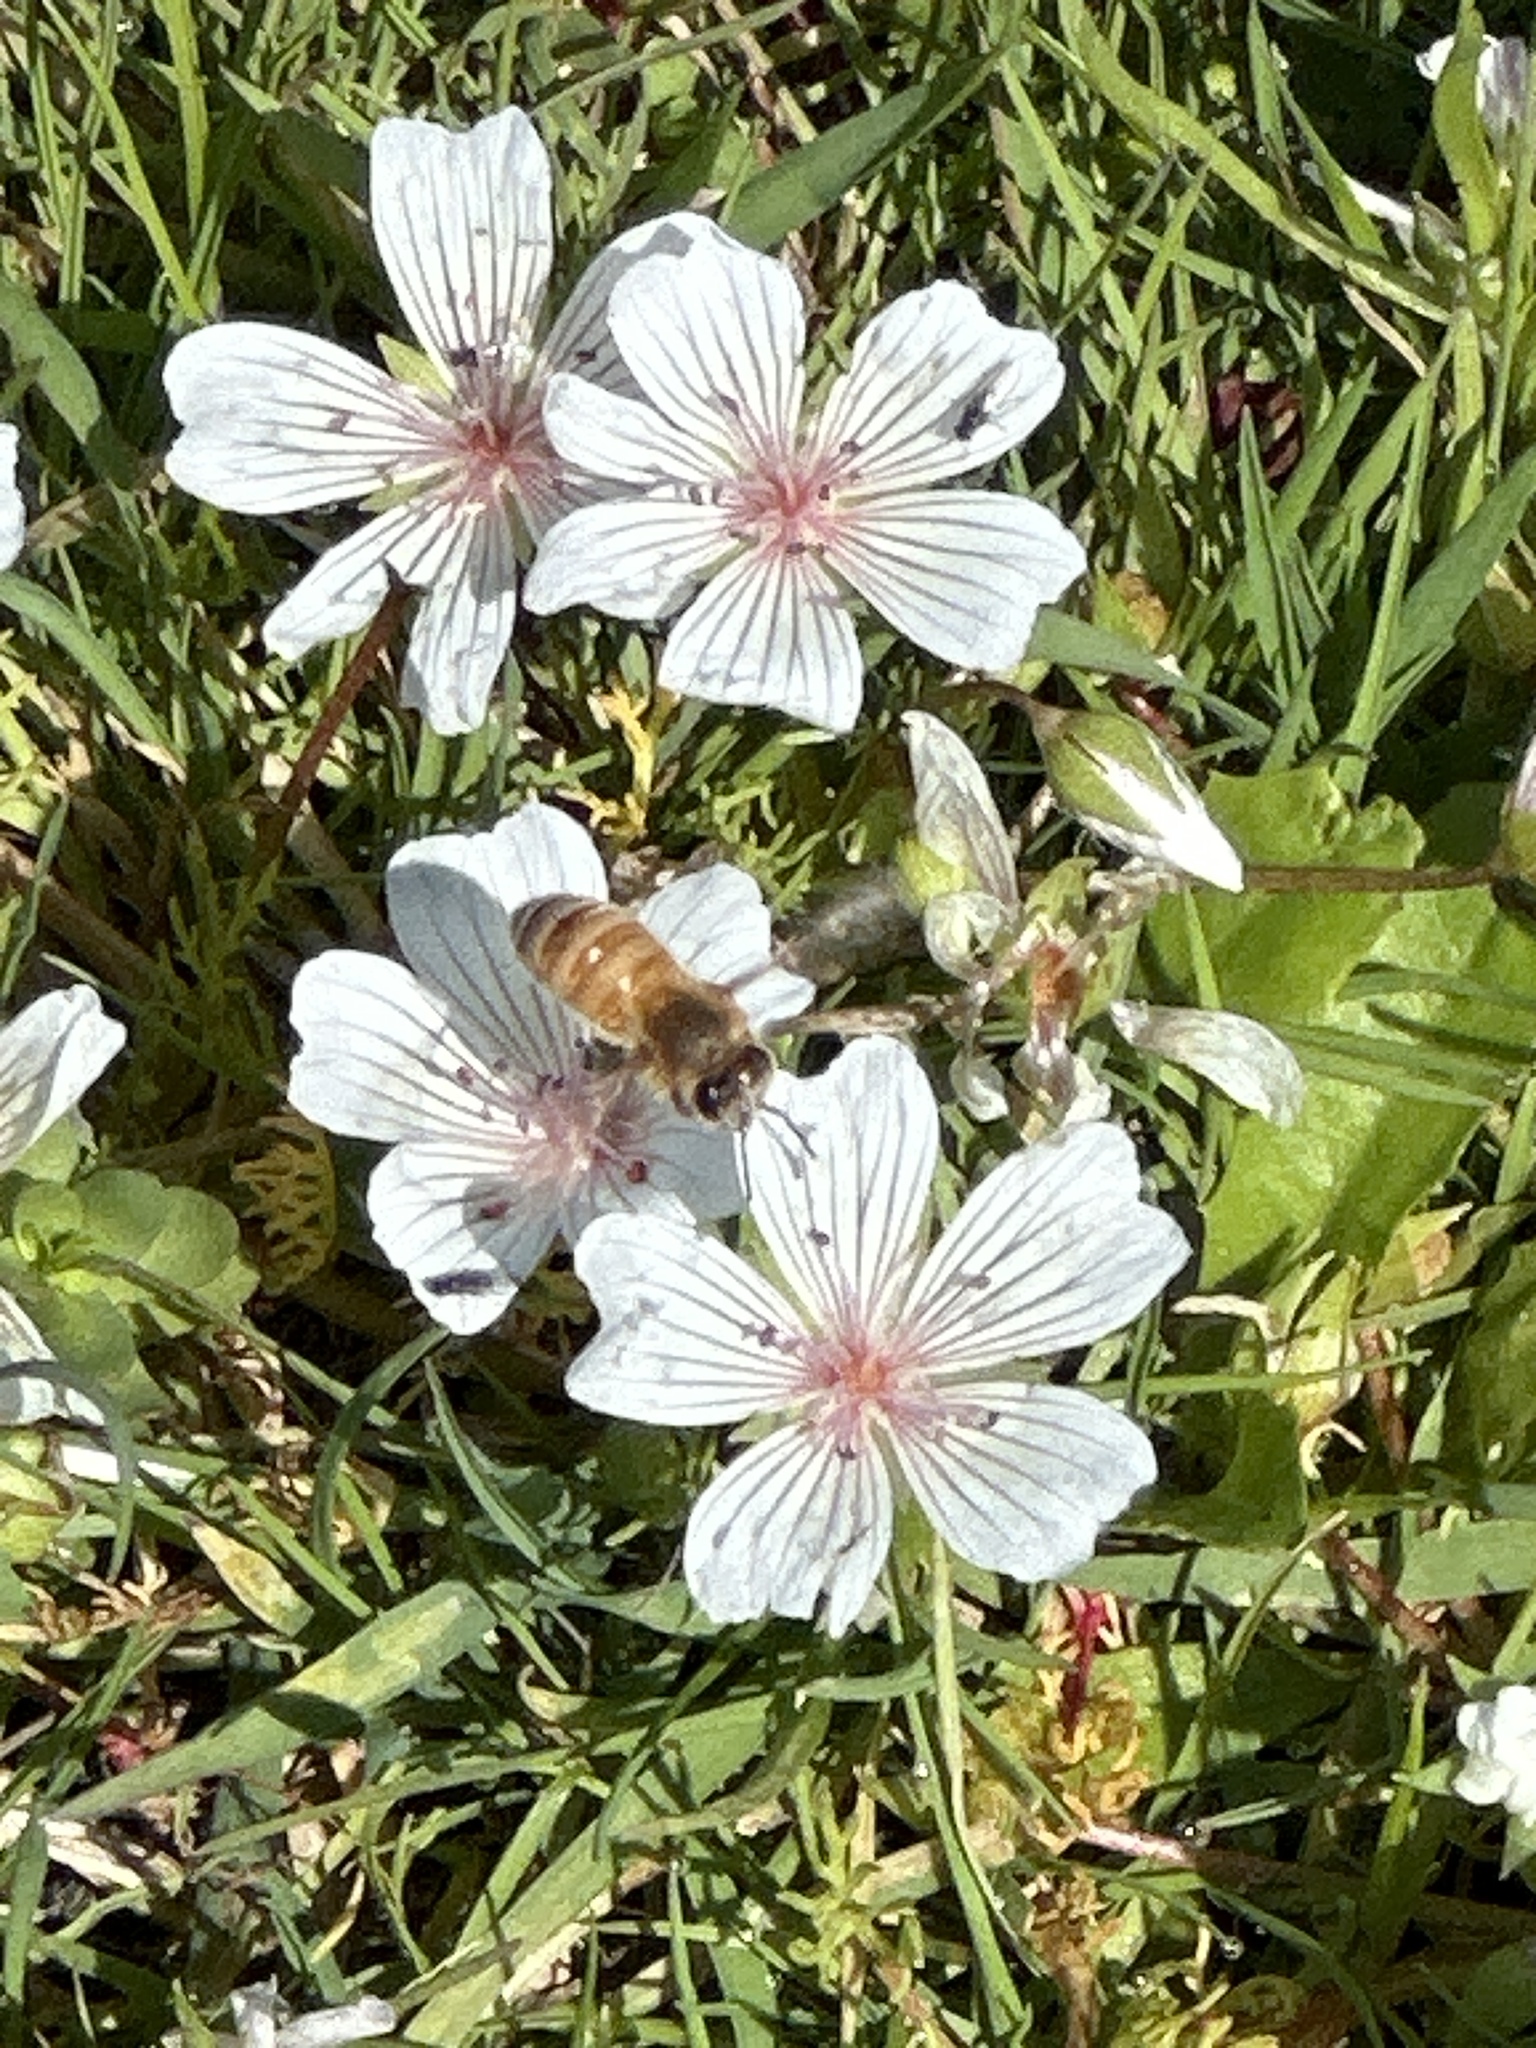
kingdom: Animalia
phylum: Arthropoda
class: Insecta
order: Hymenoptera
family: Apidae
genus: Apis
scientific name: Apis mellifera
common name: Honey bee
